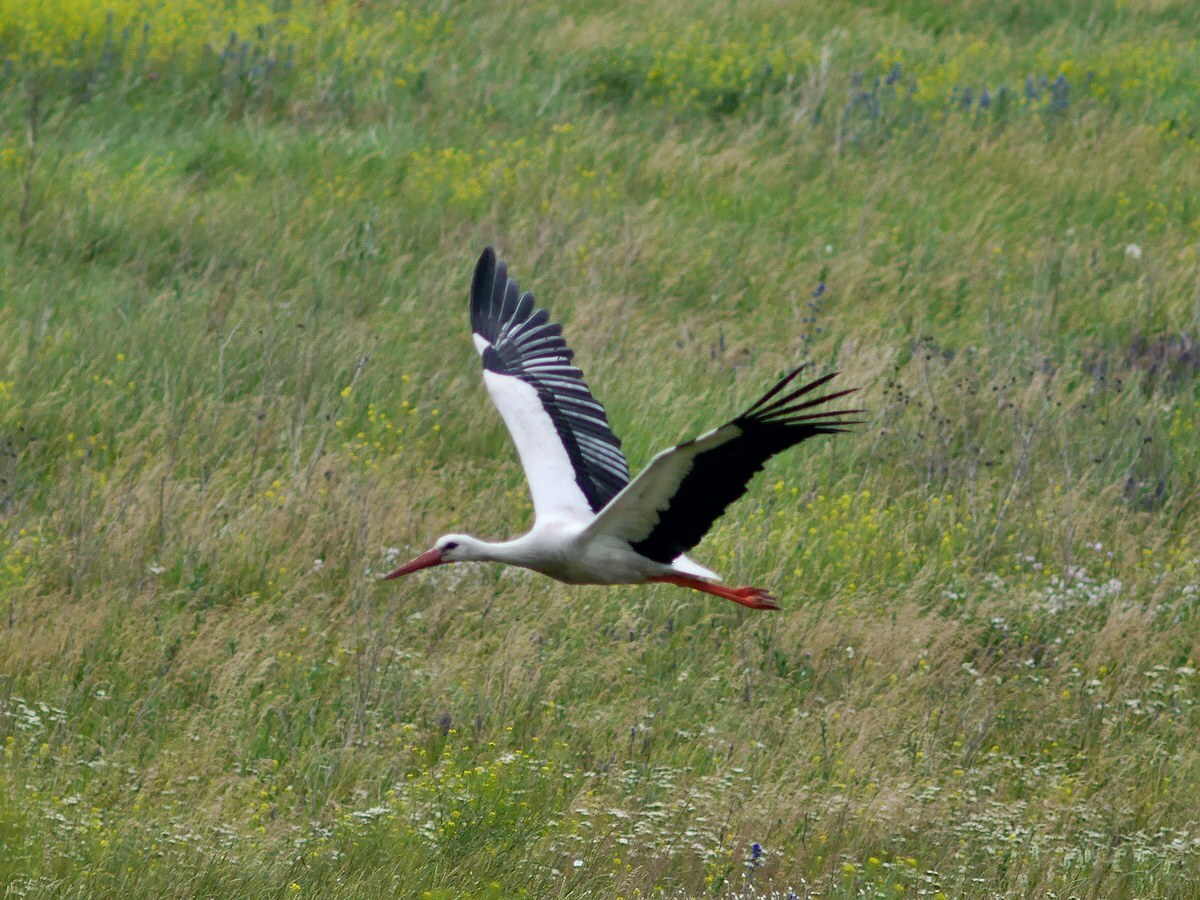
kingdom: Animalia
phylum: Chordata
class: Aves
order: Ciconiiformes
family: Ciconiidae
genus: Ciconia
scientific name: Ciconia ciconia
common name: White stork
